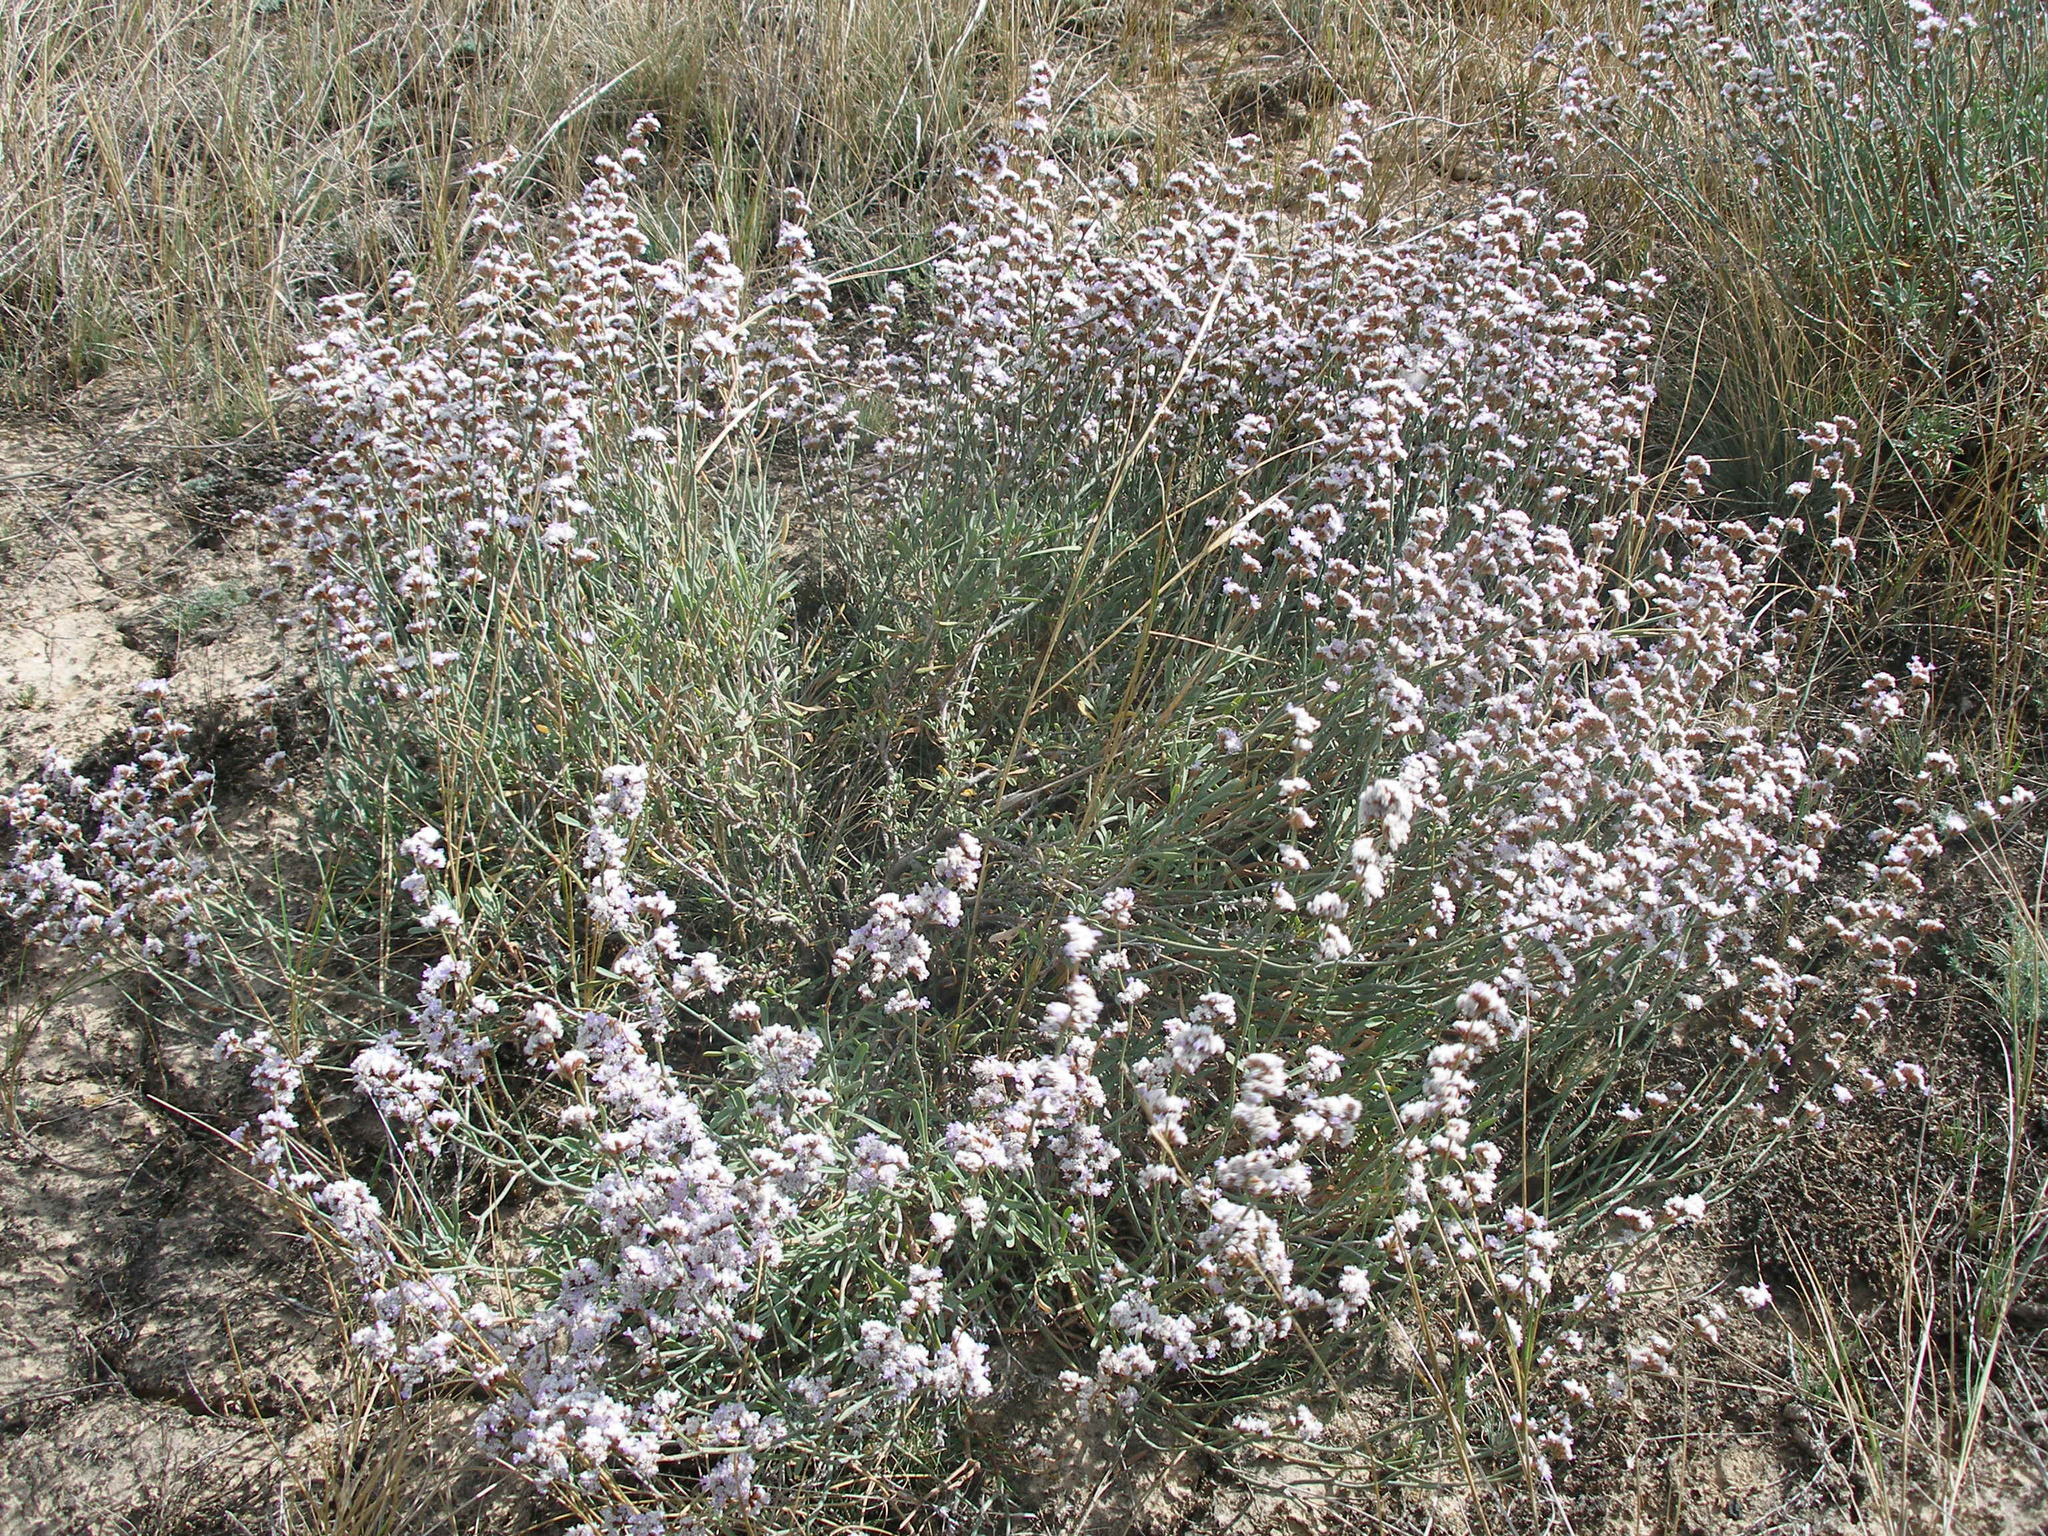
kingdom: Plantae
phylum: Tracheophyta
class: Magnoliopsida
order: Caryophyllales
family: Plumbaginaceae
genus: Limonium
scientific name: Limonium suffruticosum
